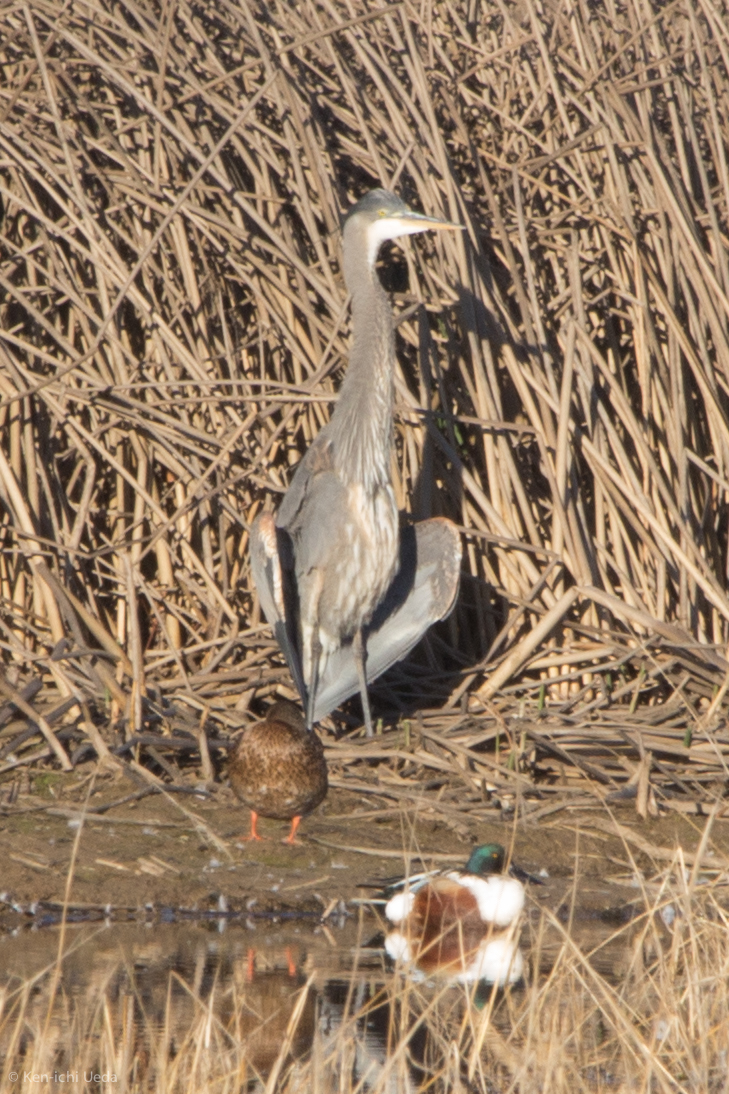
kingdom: Animalia
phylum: Chordata
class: Aves
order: Pelecaniformes
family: Ardeidae
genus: Ardea
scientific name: Ardea herodias
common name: Great blue heron
